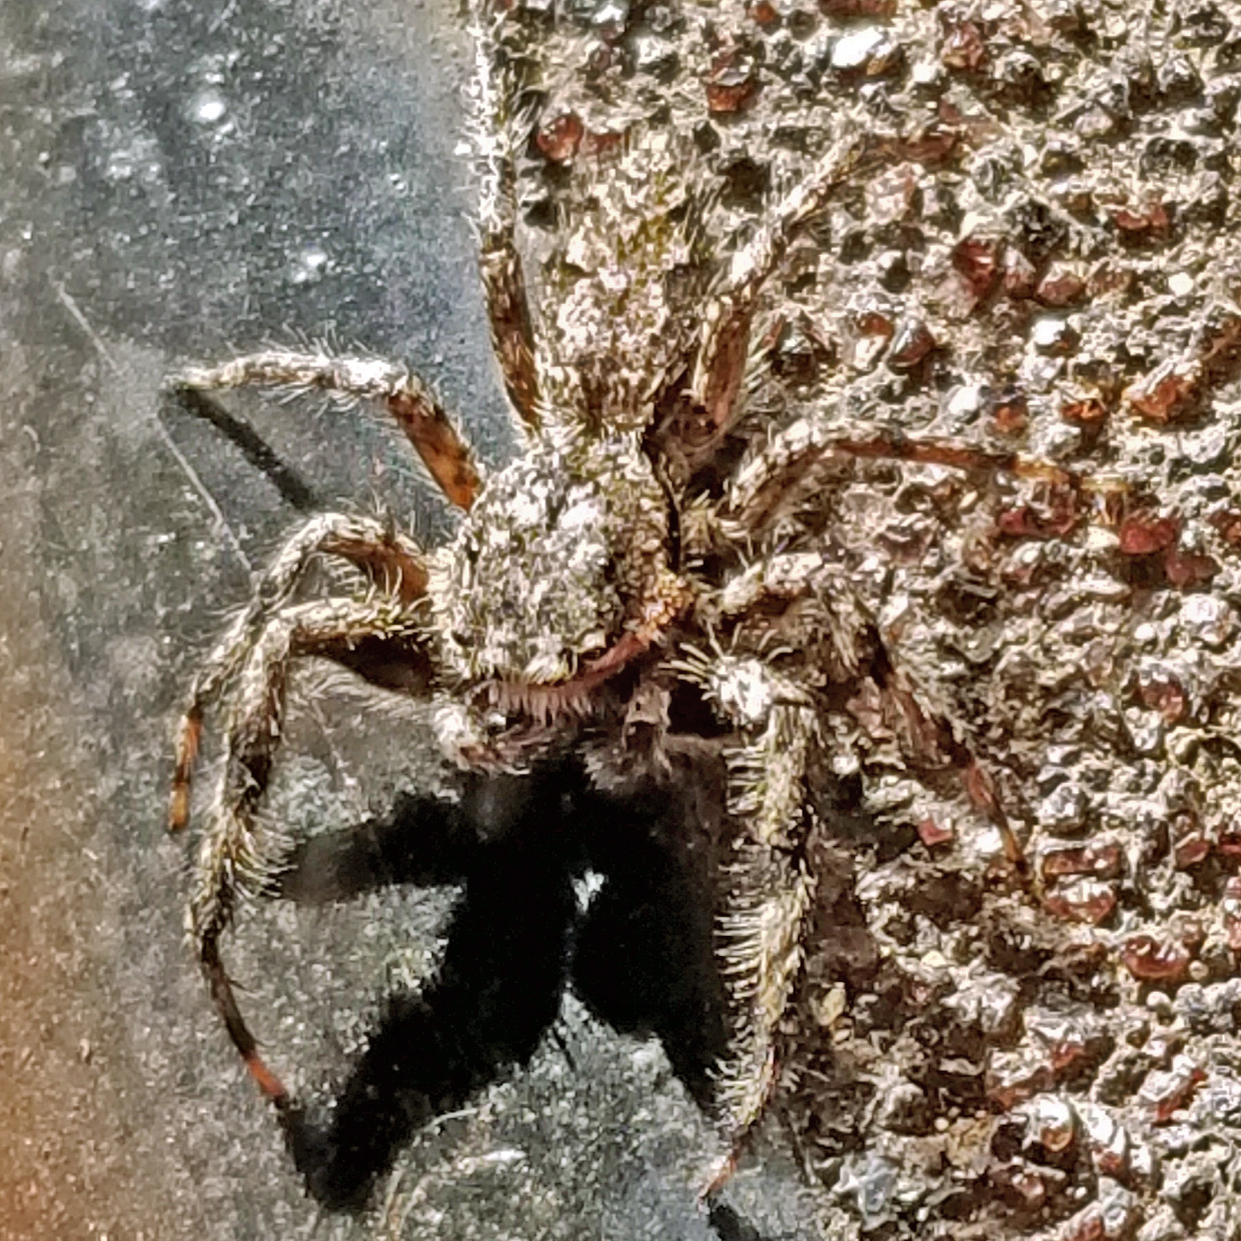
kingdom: Animalia
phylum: Arthropoda
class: Arachnida
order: Araneae
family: Salticidae
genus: Platycryptus
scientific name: Platycryptus undatus
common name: Tan jumping spider
